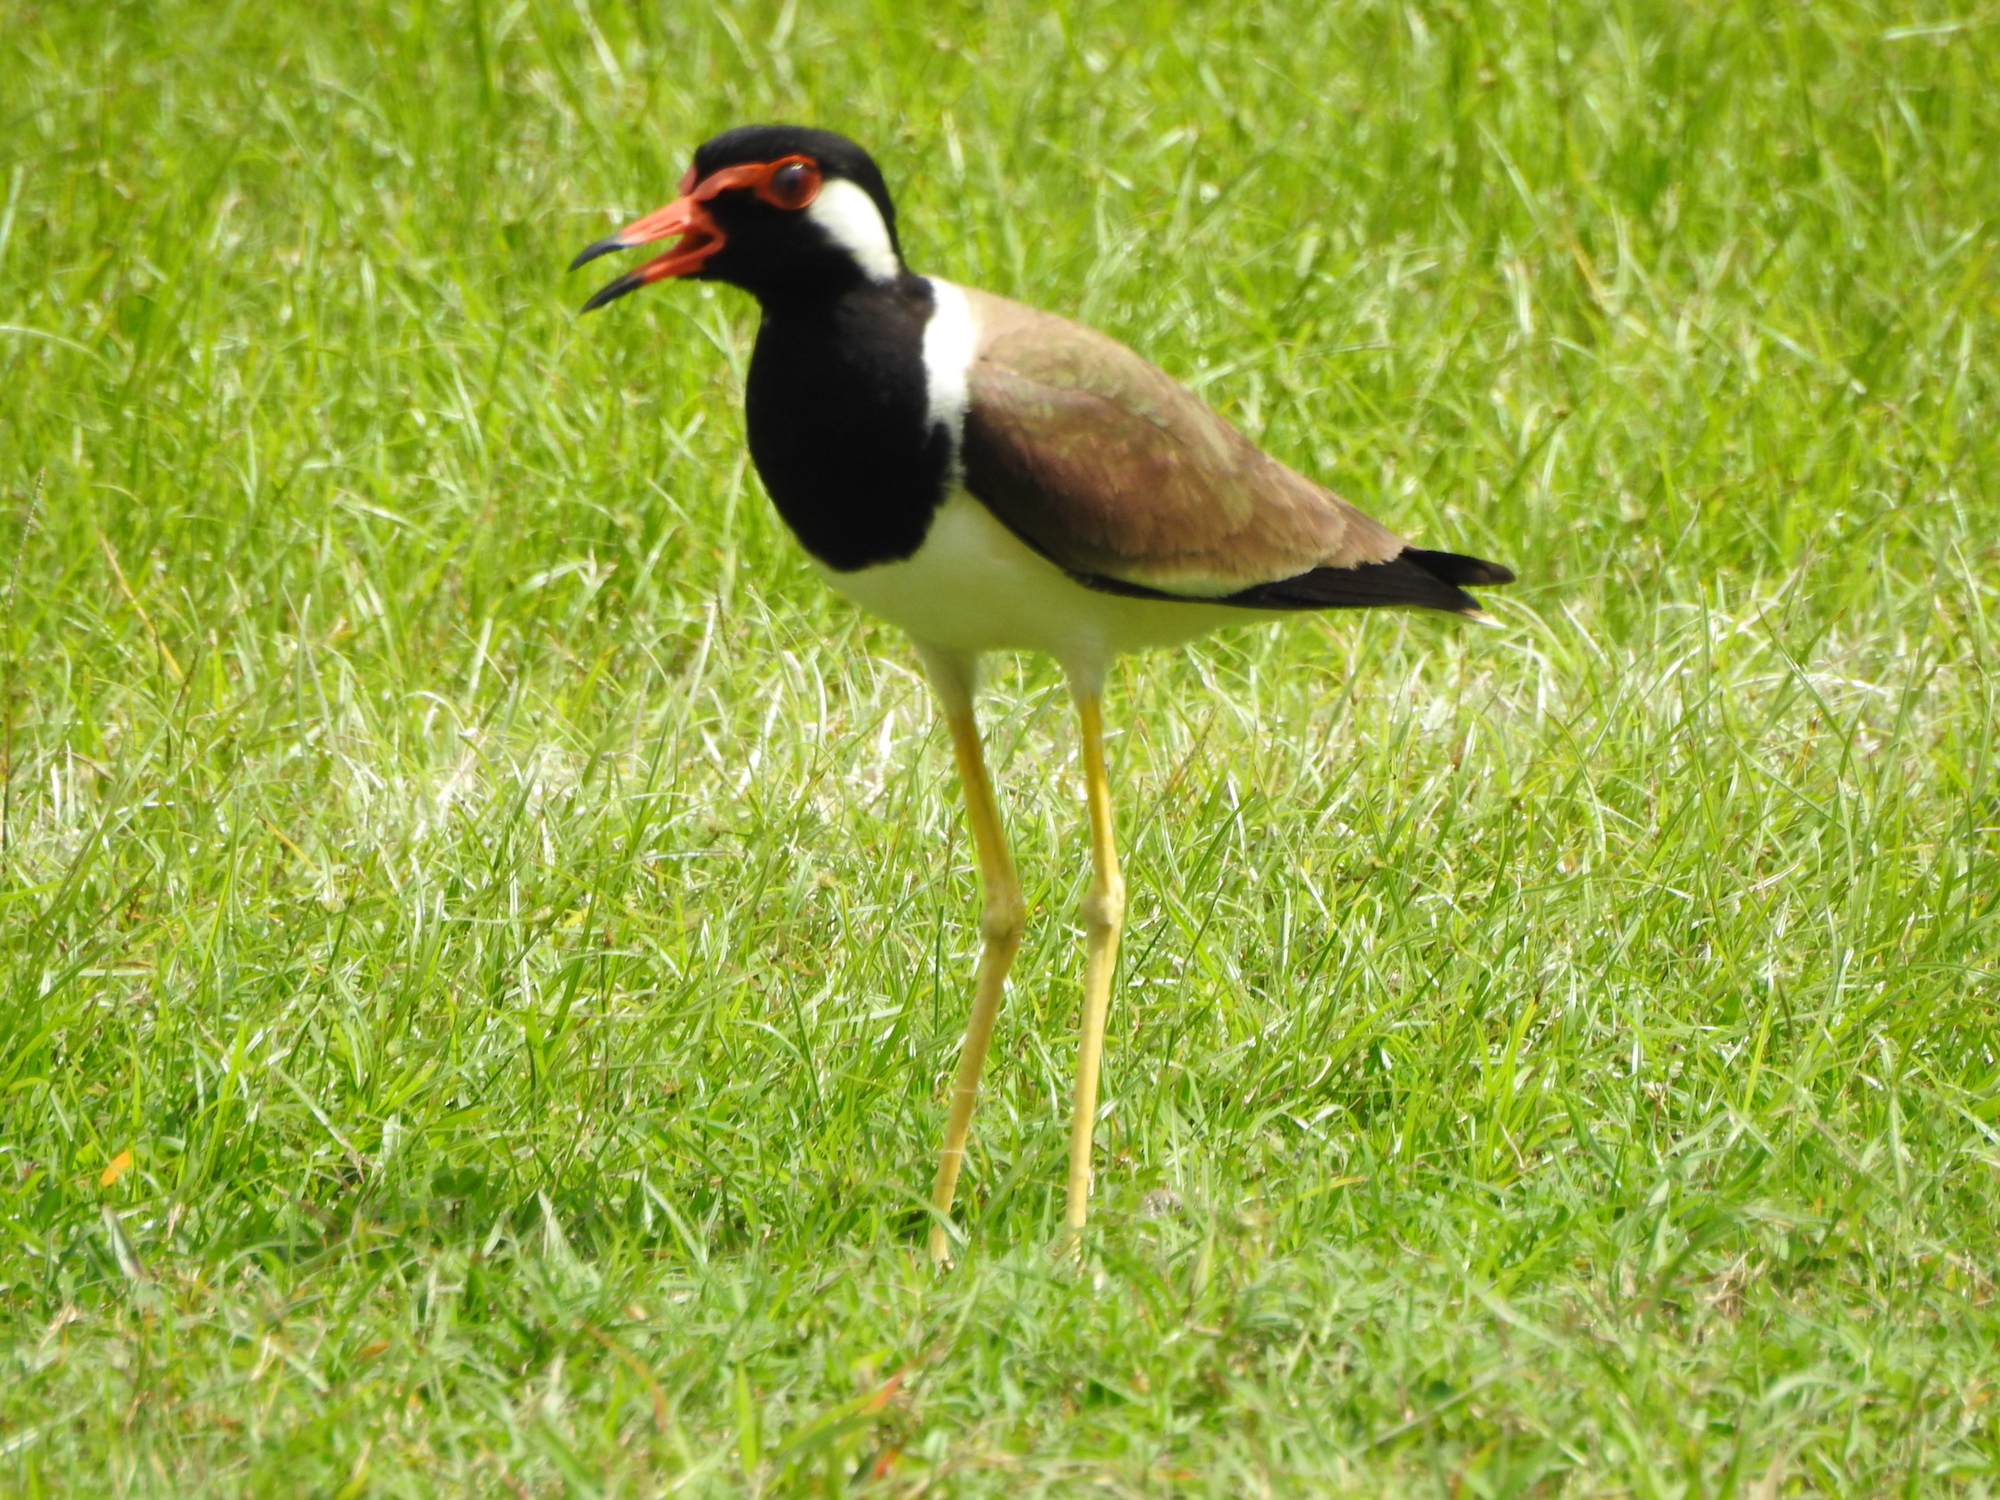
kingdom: Animalia
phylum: Chordata
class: Aves
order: Charadriiformes
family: Charadriidae
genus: Vanellus
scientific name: Vanellus indicus
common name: Red-wattled lapwing
